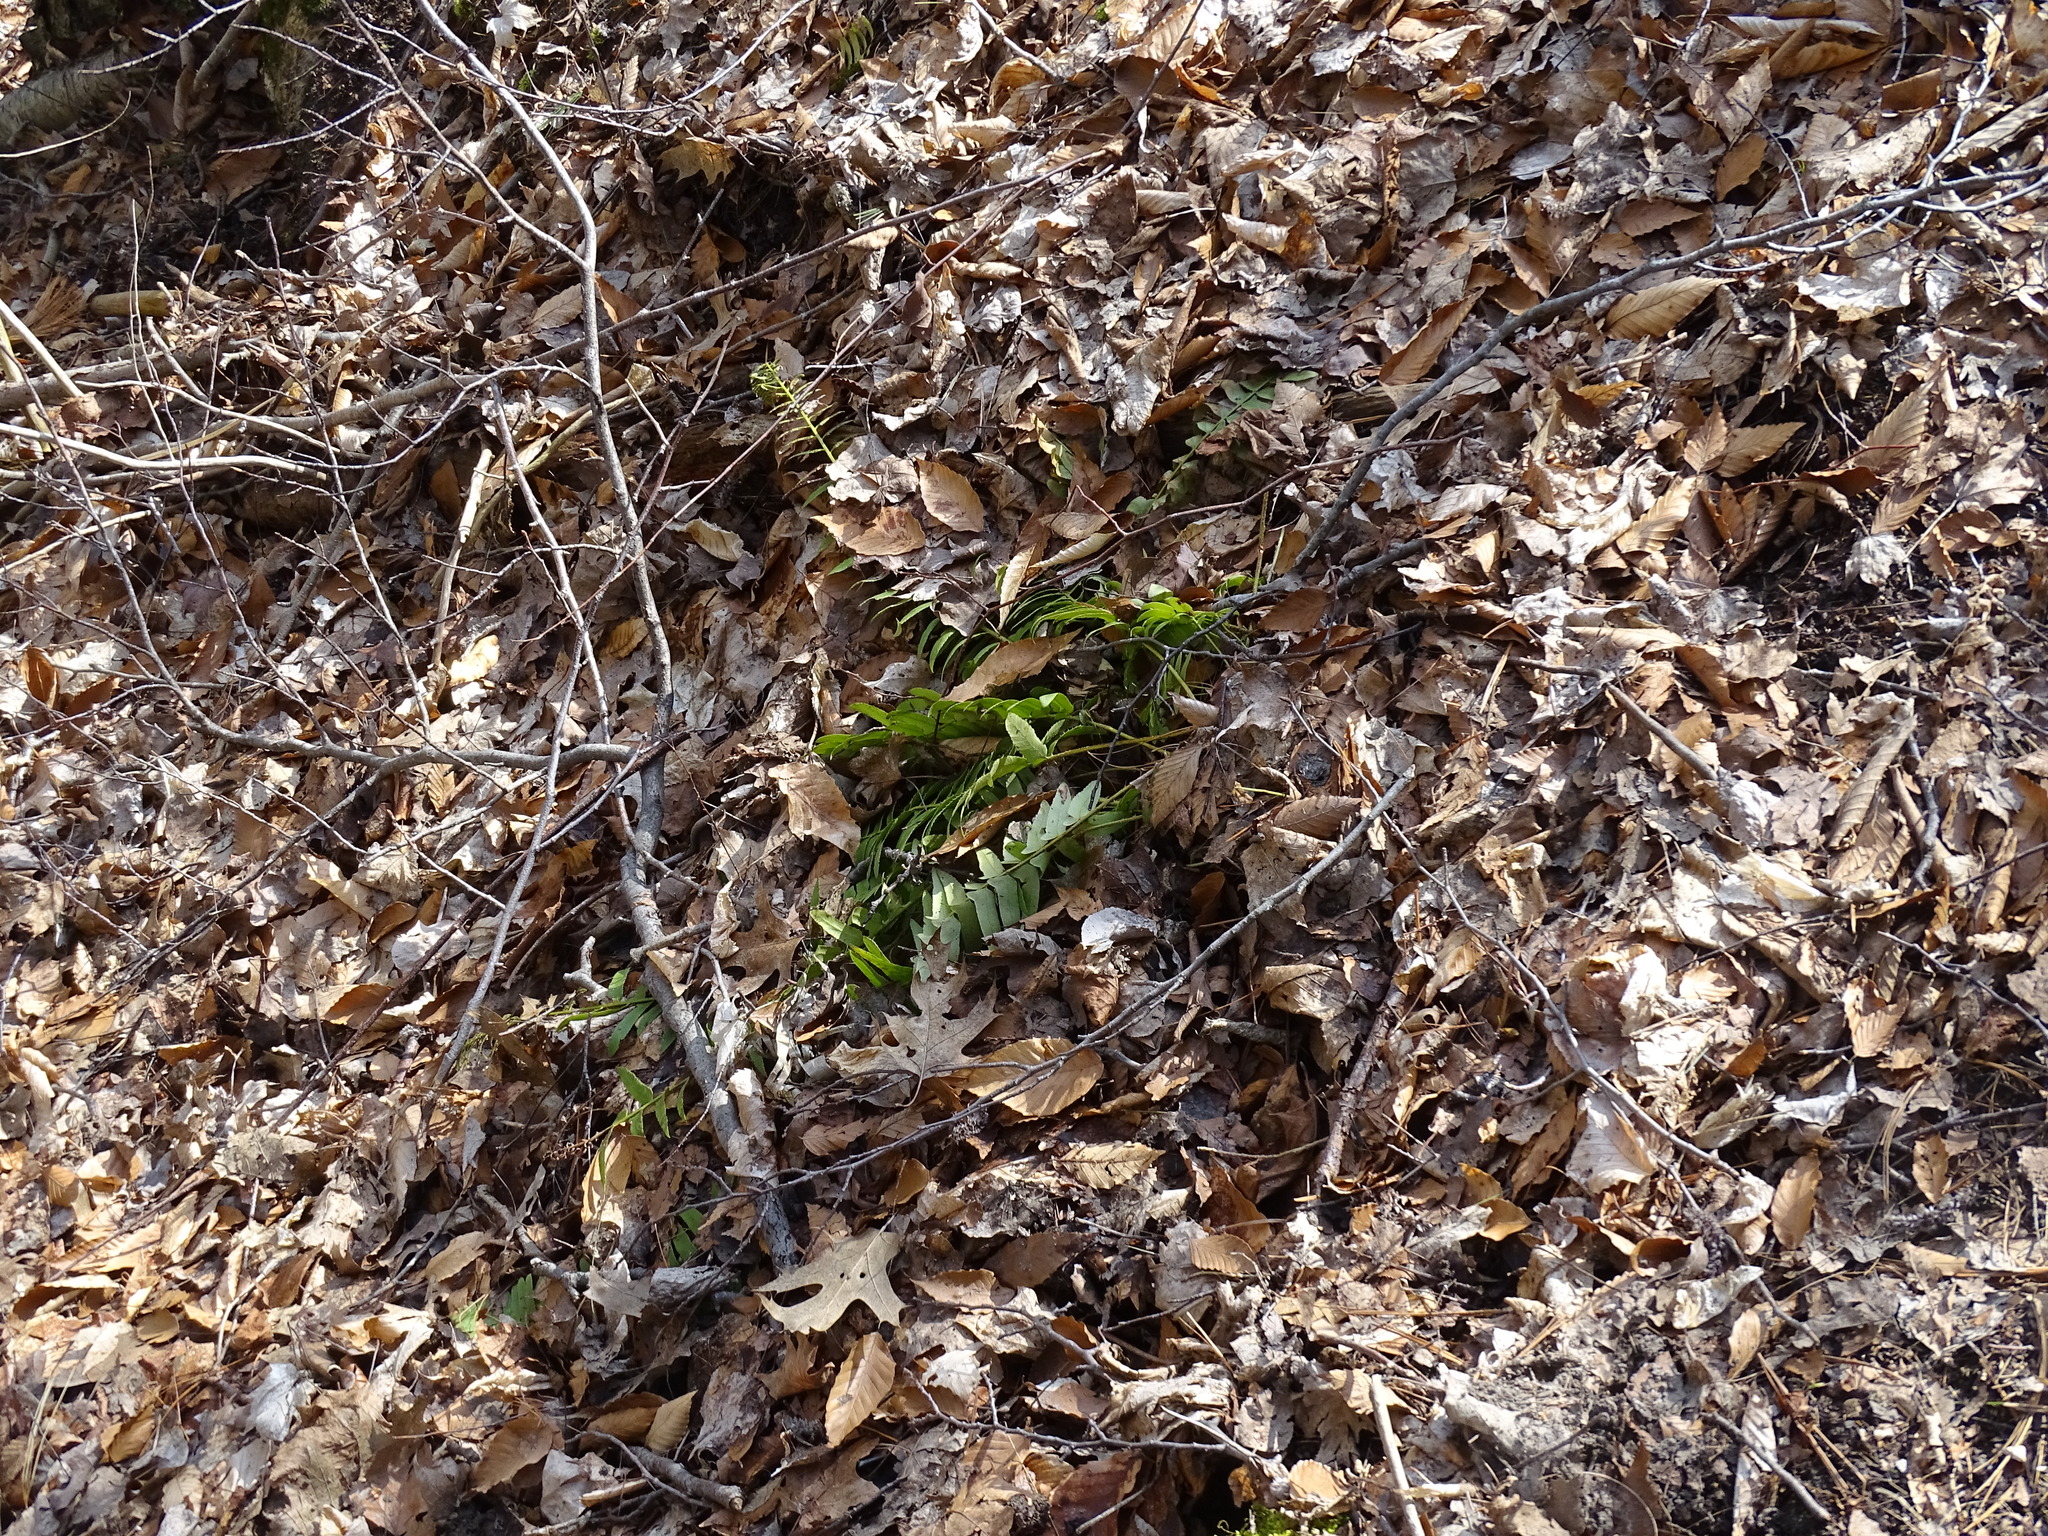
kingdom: Plantae
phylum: Tracheophyta
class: Polypodiopsida
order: Polypodiales
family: Dryopteridaceae
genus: Polystichum
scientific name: Polystichum acrostichoides
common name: Christmas fern
